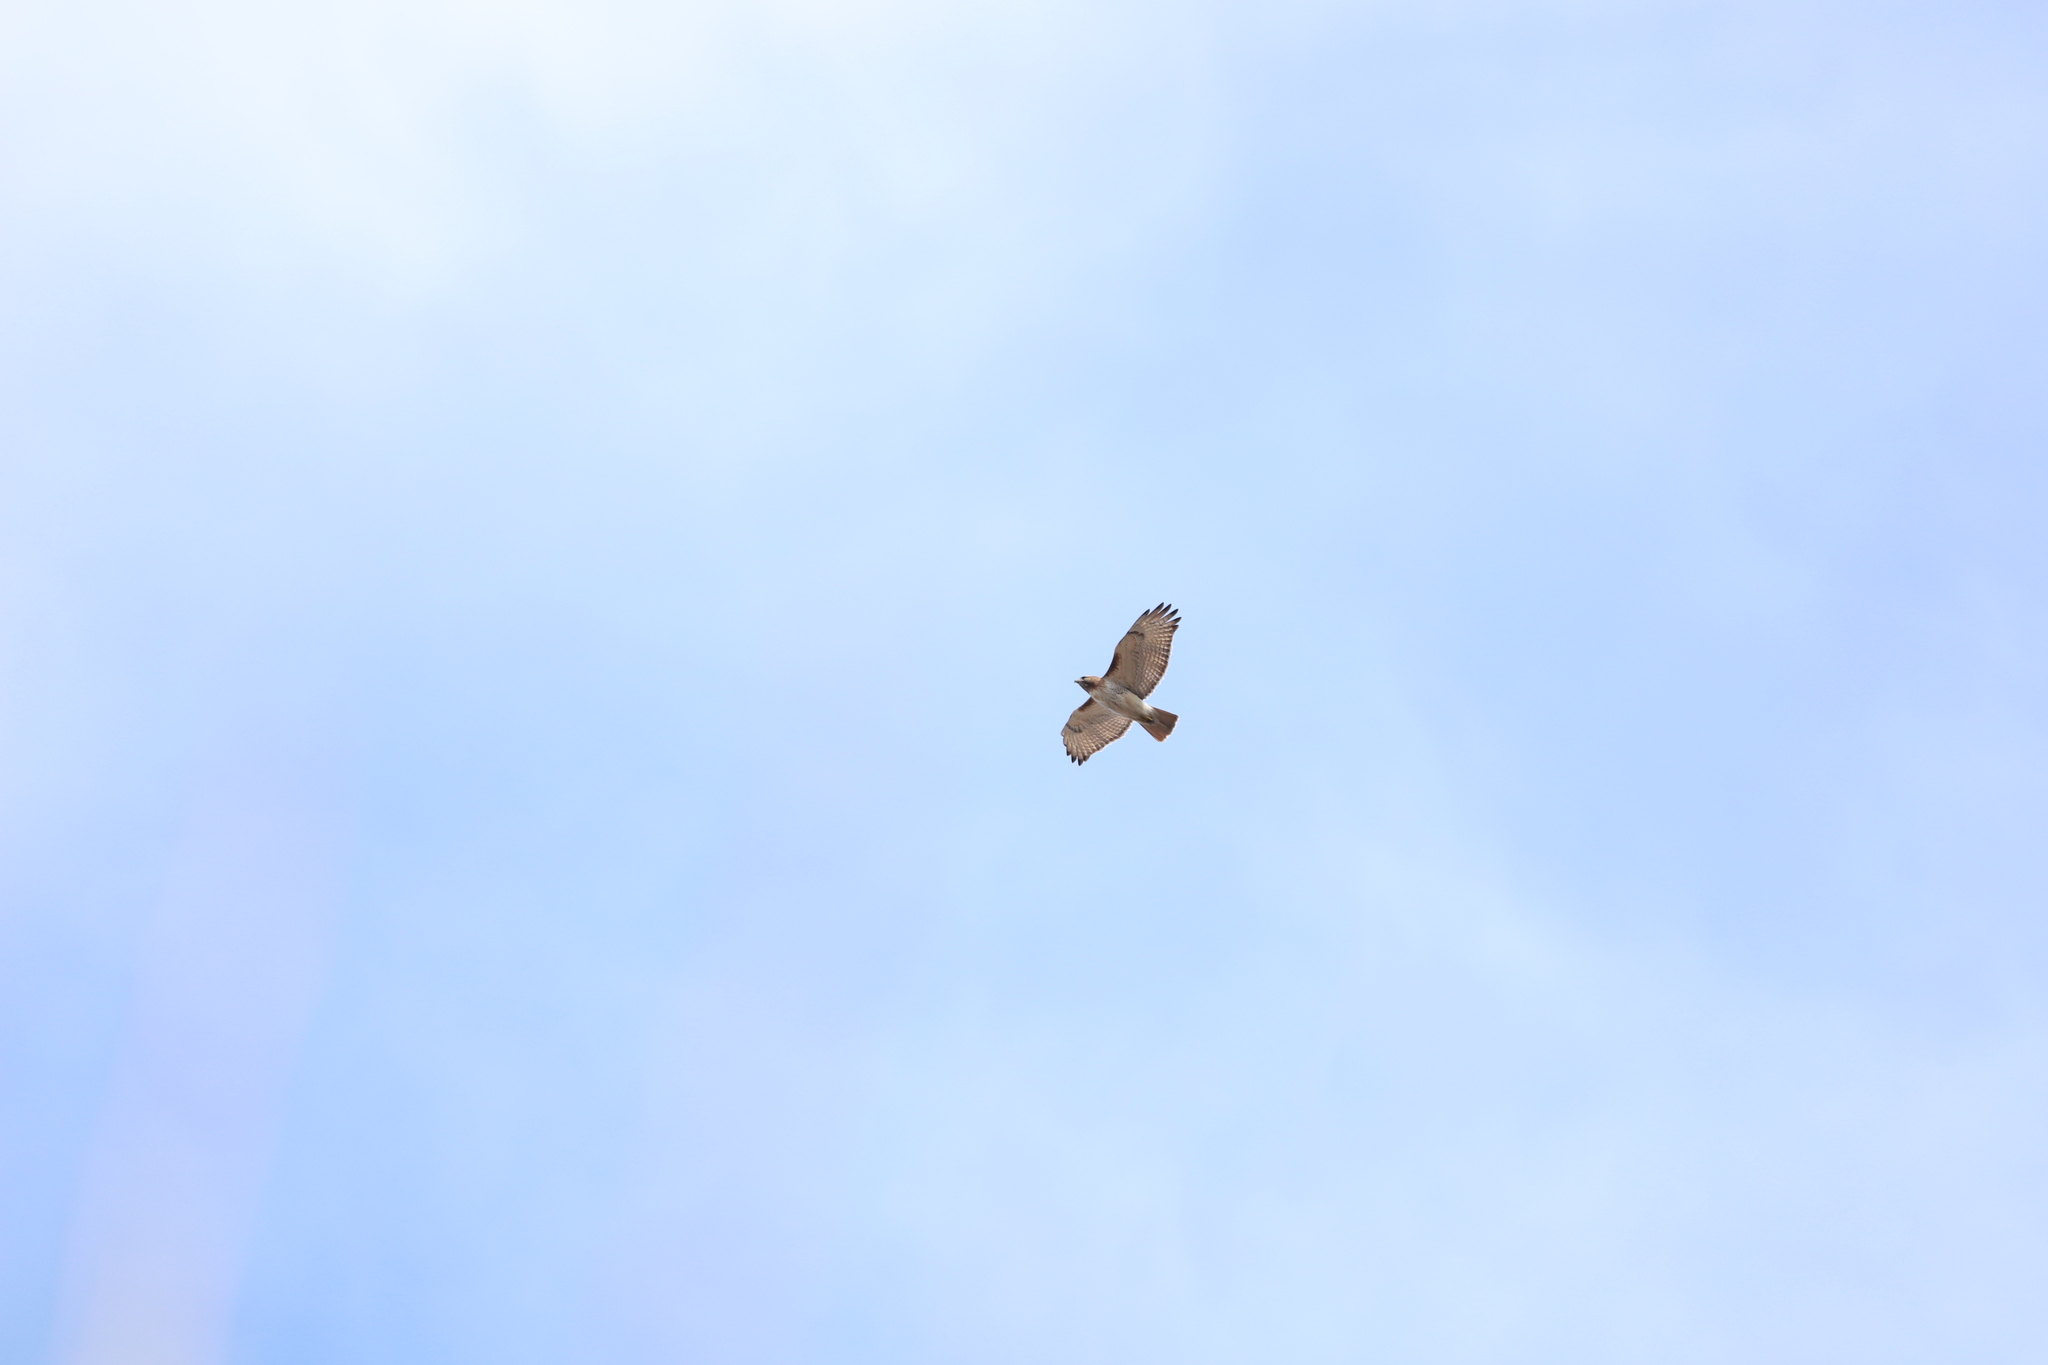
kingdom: Animalia
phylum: Chordata
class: Aves
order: Accipitriformes
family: Accipitridae
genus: Buteo
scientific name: Buteo jamaicensis
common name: Red-tailed hawk
